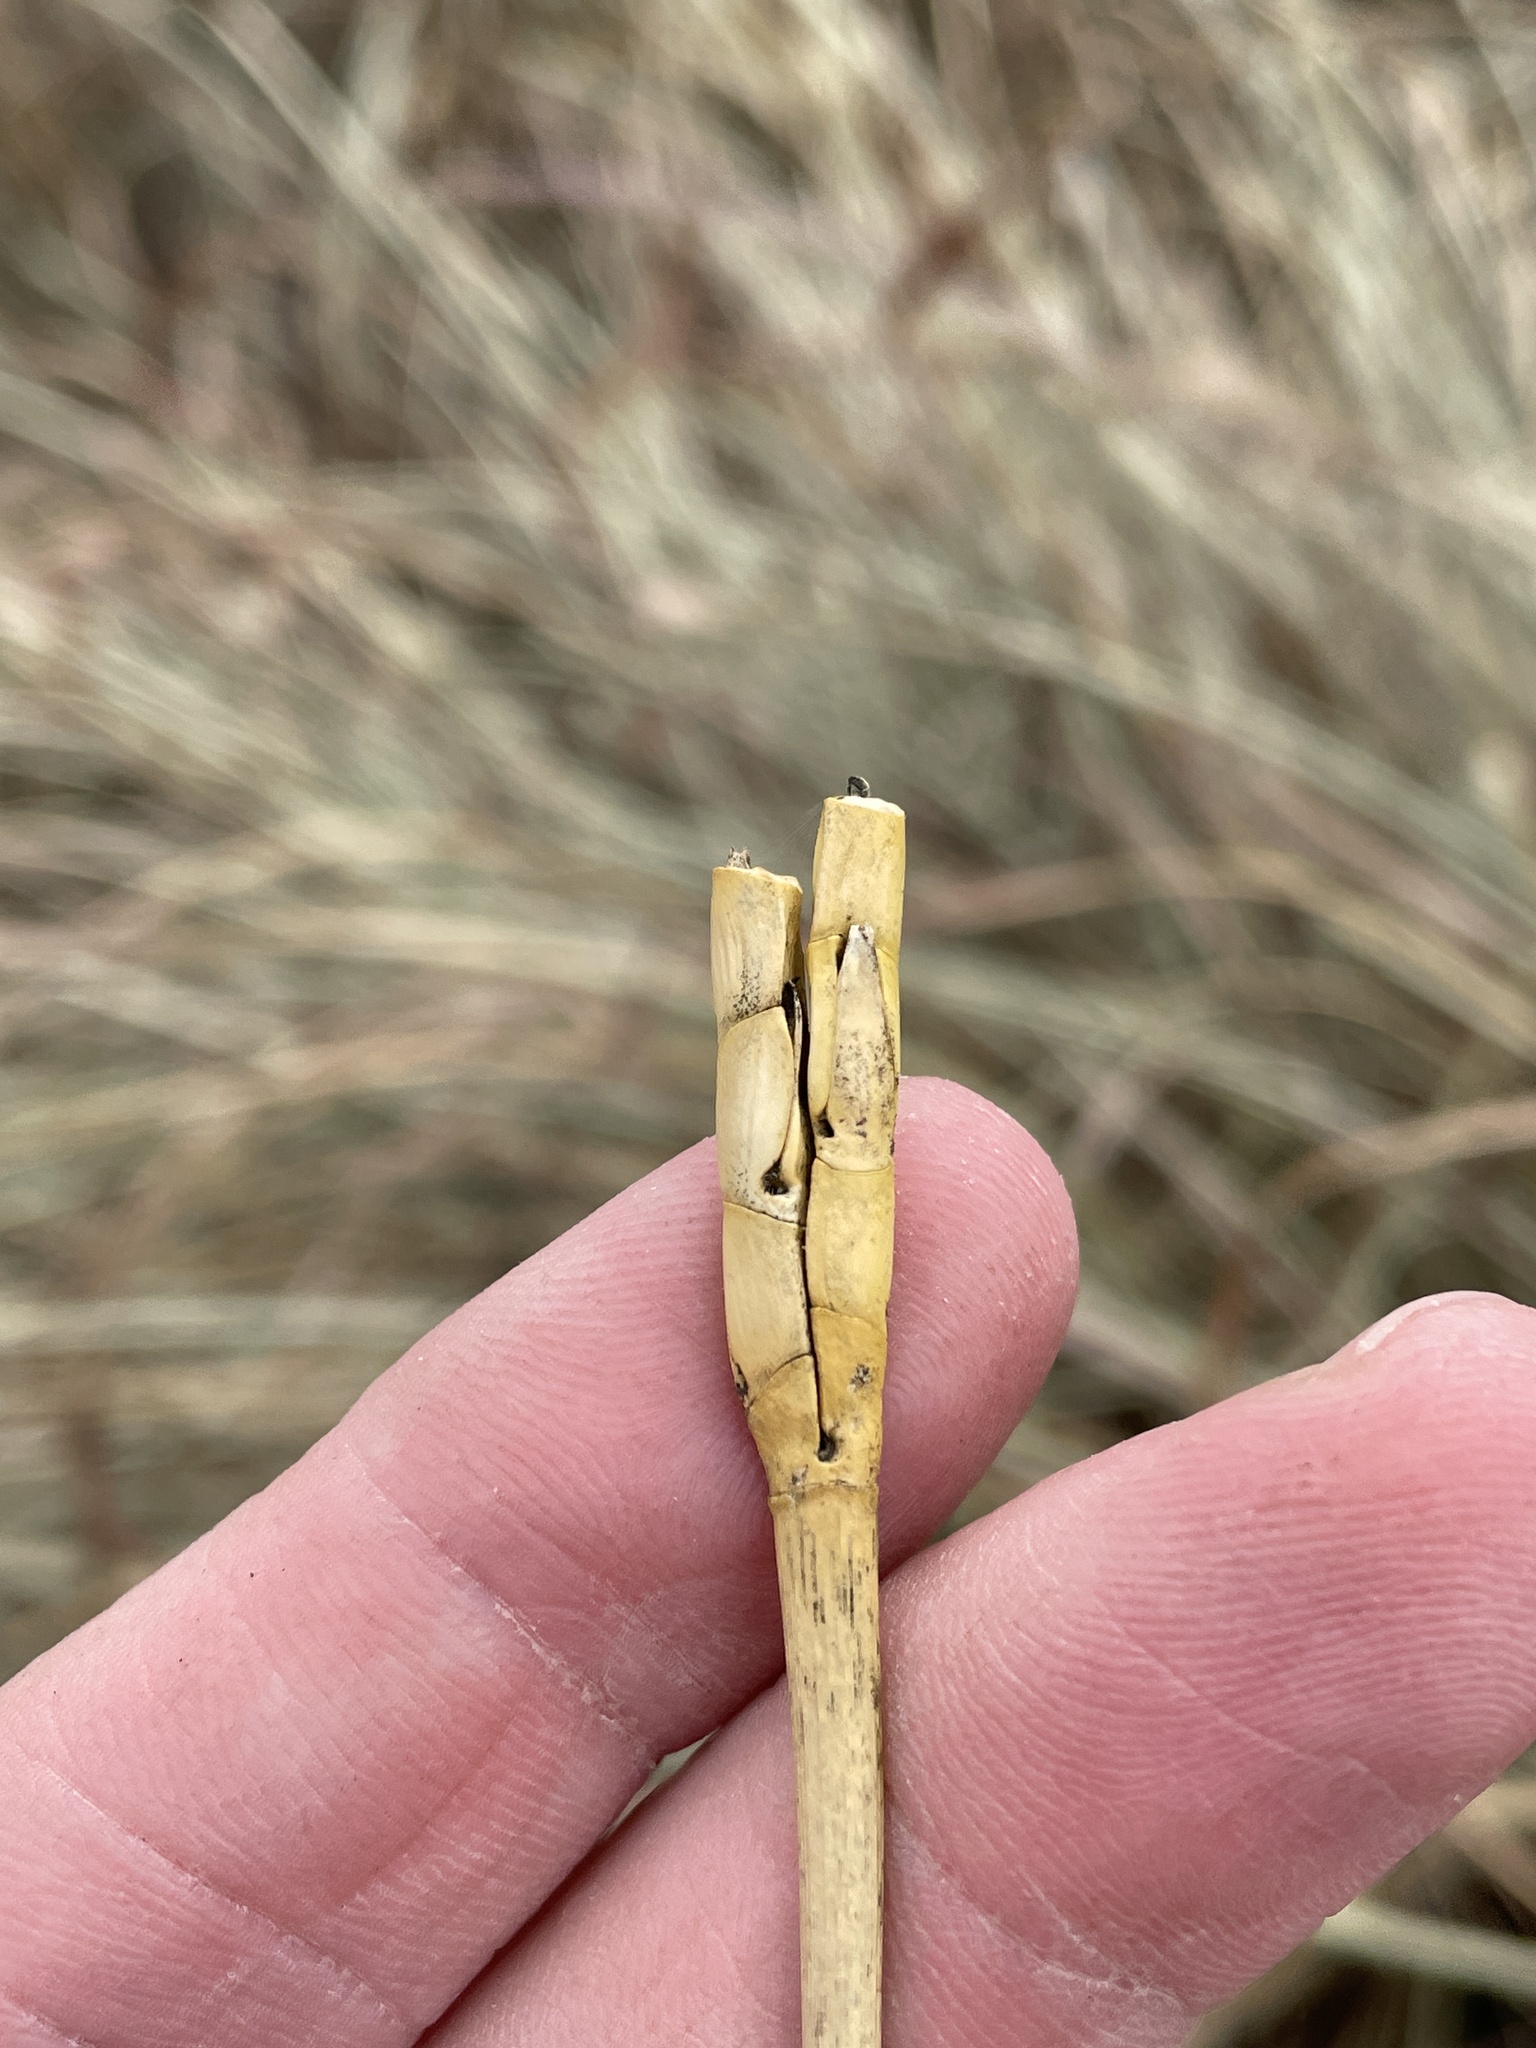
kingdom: Plantae
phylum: Tracheophyta
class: Liliopsida
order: Poales
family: Poaceae
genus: Tripsacum
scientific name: Tripsacum dactyloides
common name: Buffalo-grass
